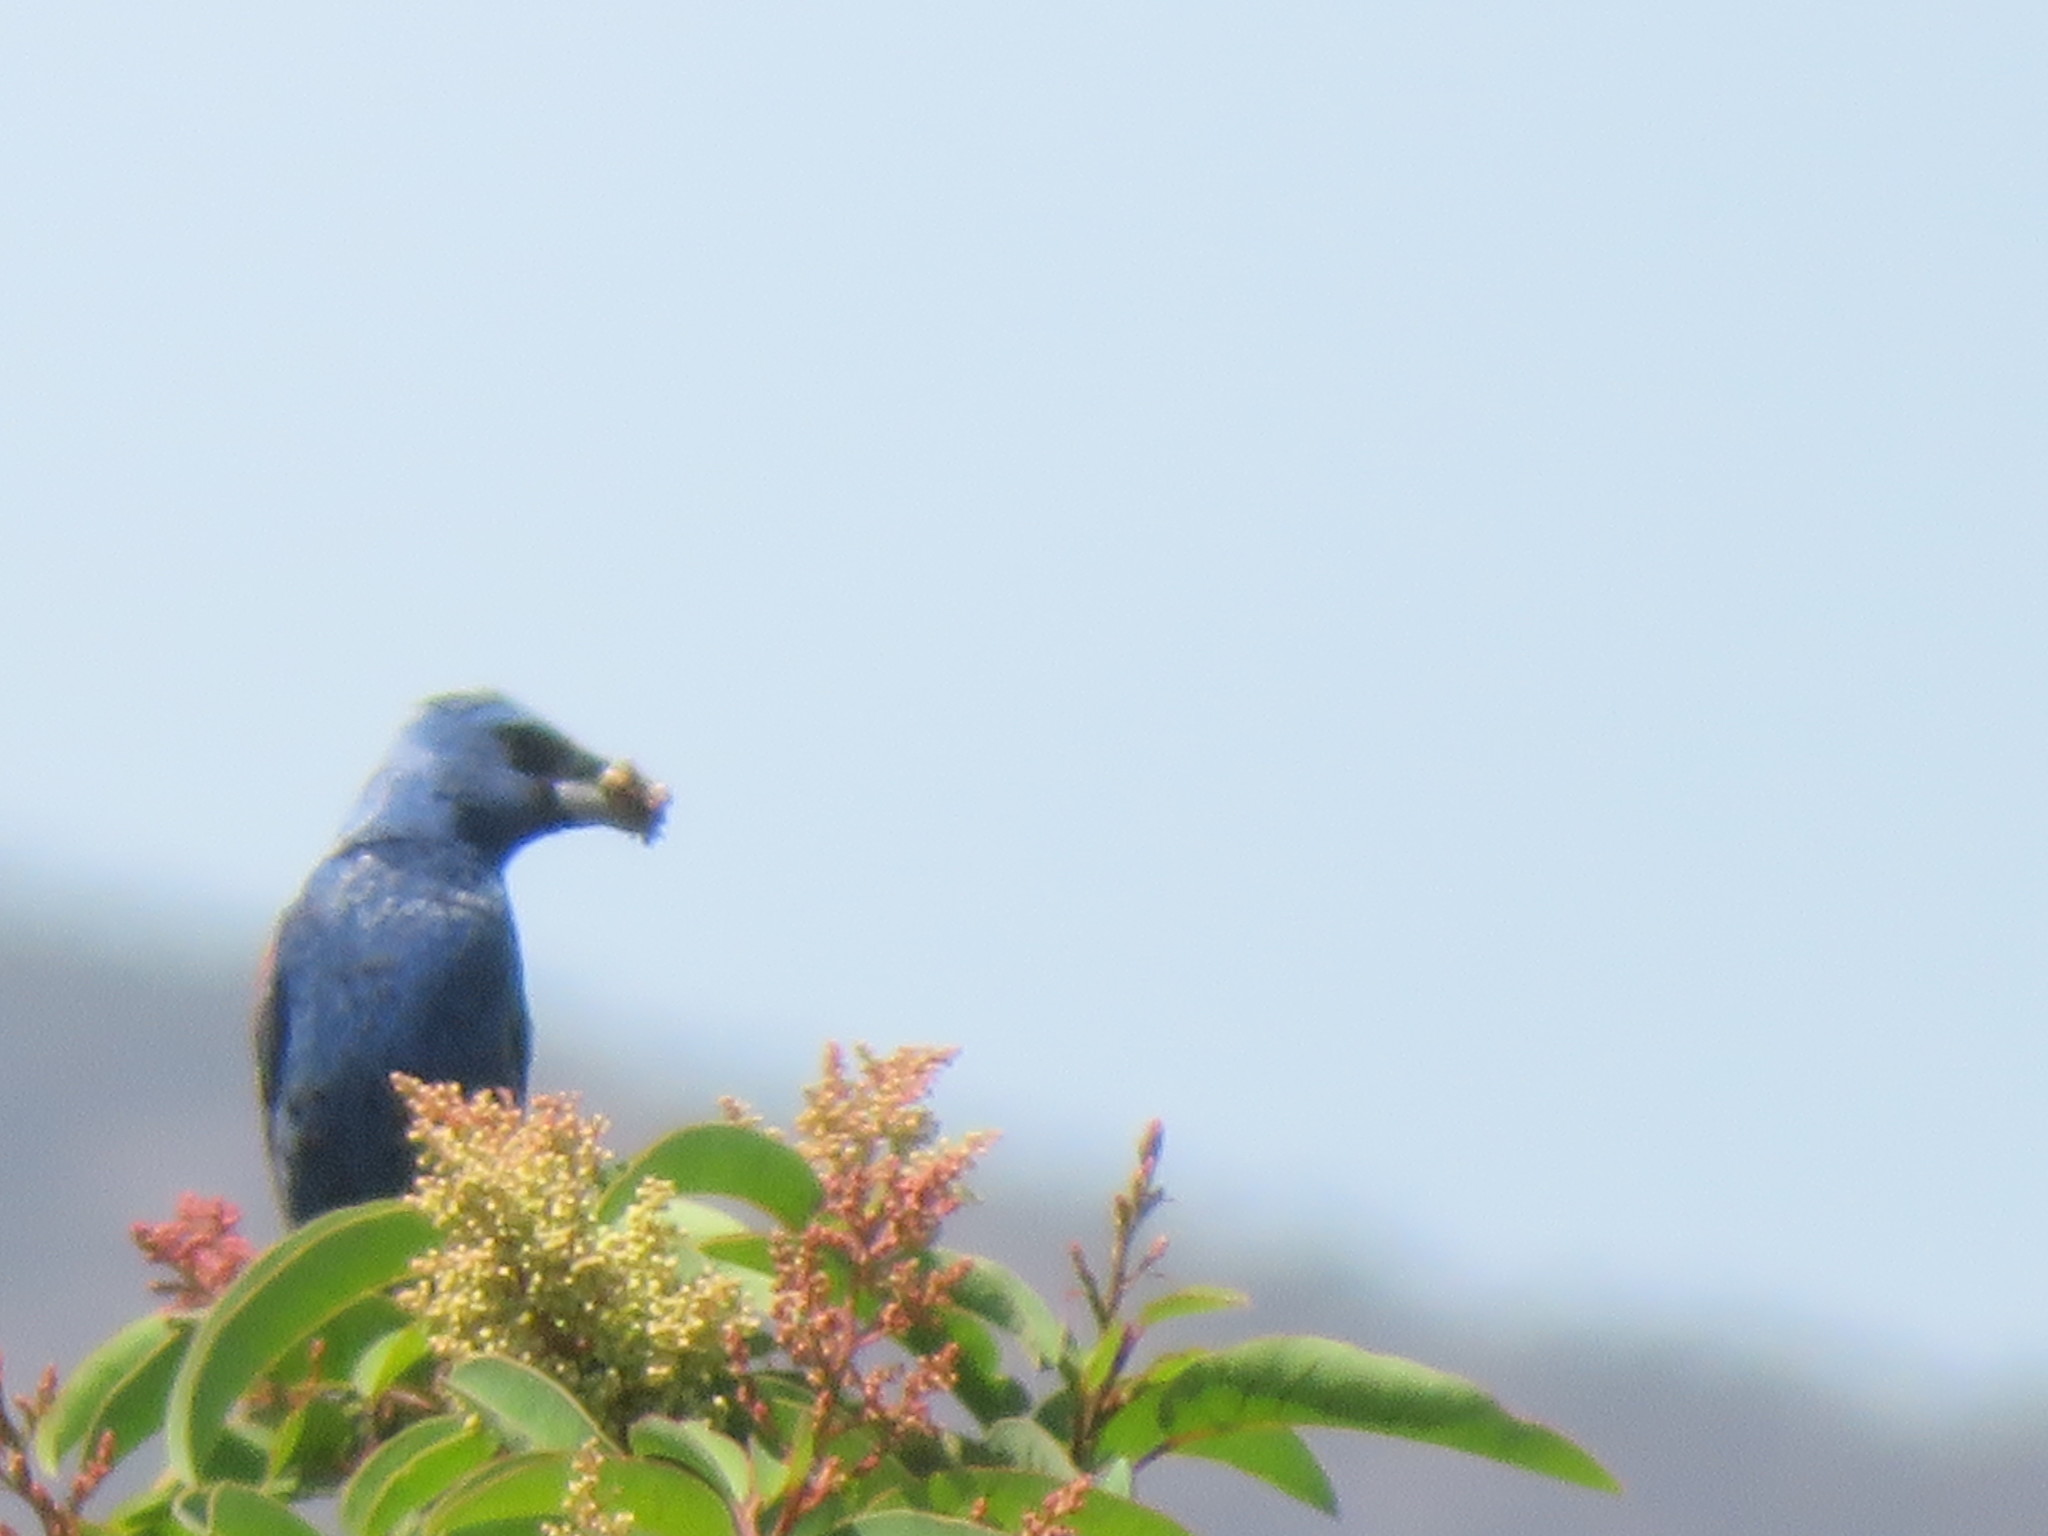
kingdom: Animalia
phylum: Chordata
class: Aves
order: Passeriformes
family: Cardinalidae
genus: Passerina
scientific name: Passerina caerulea
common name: Blue grosbeak
